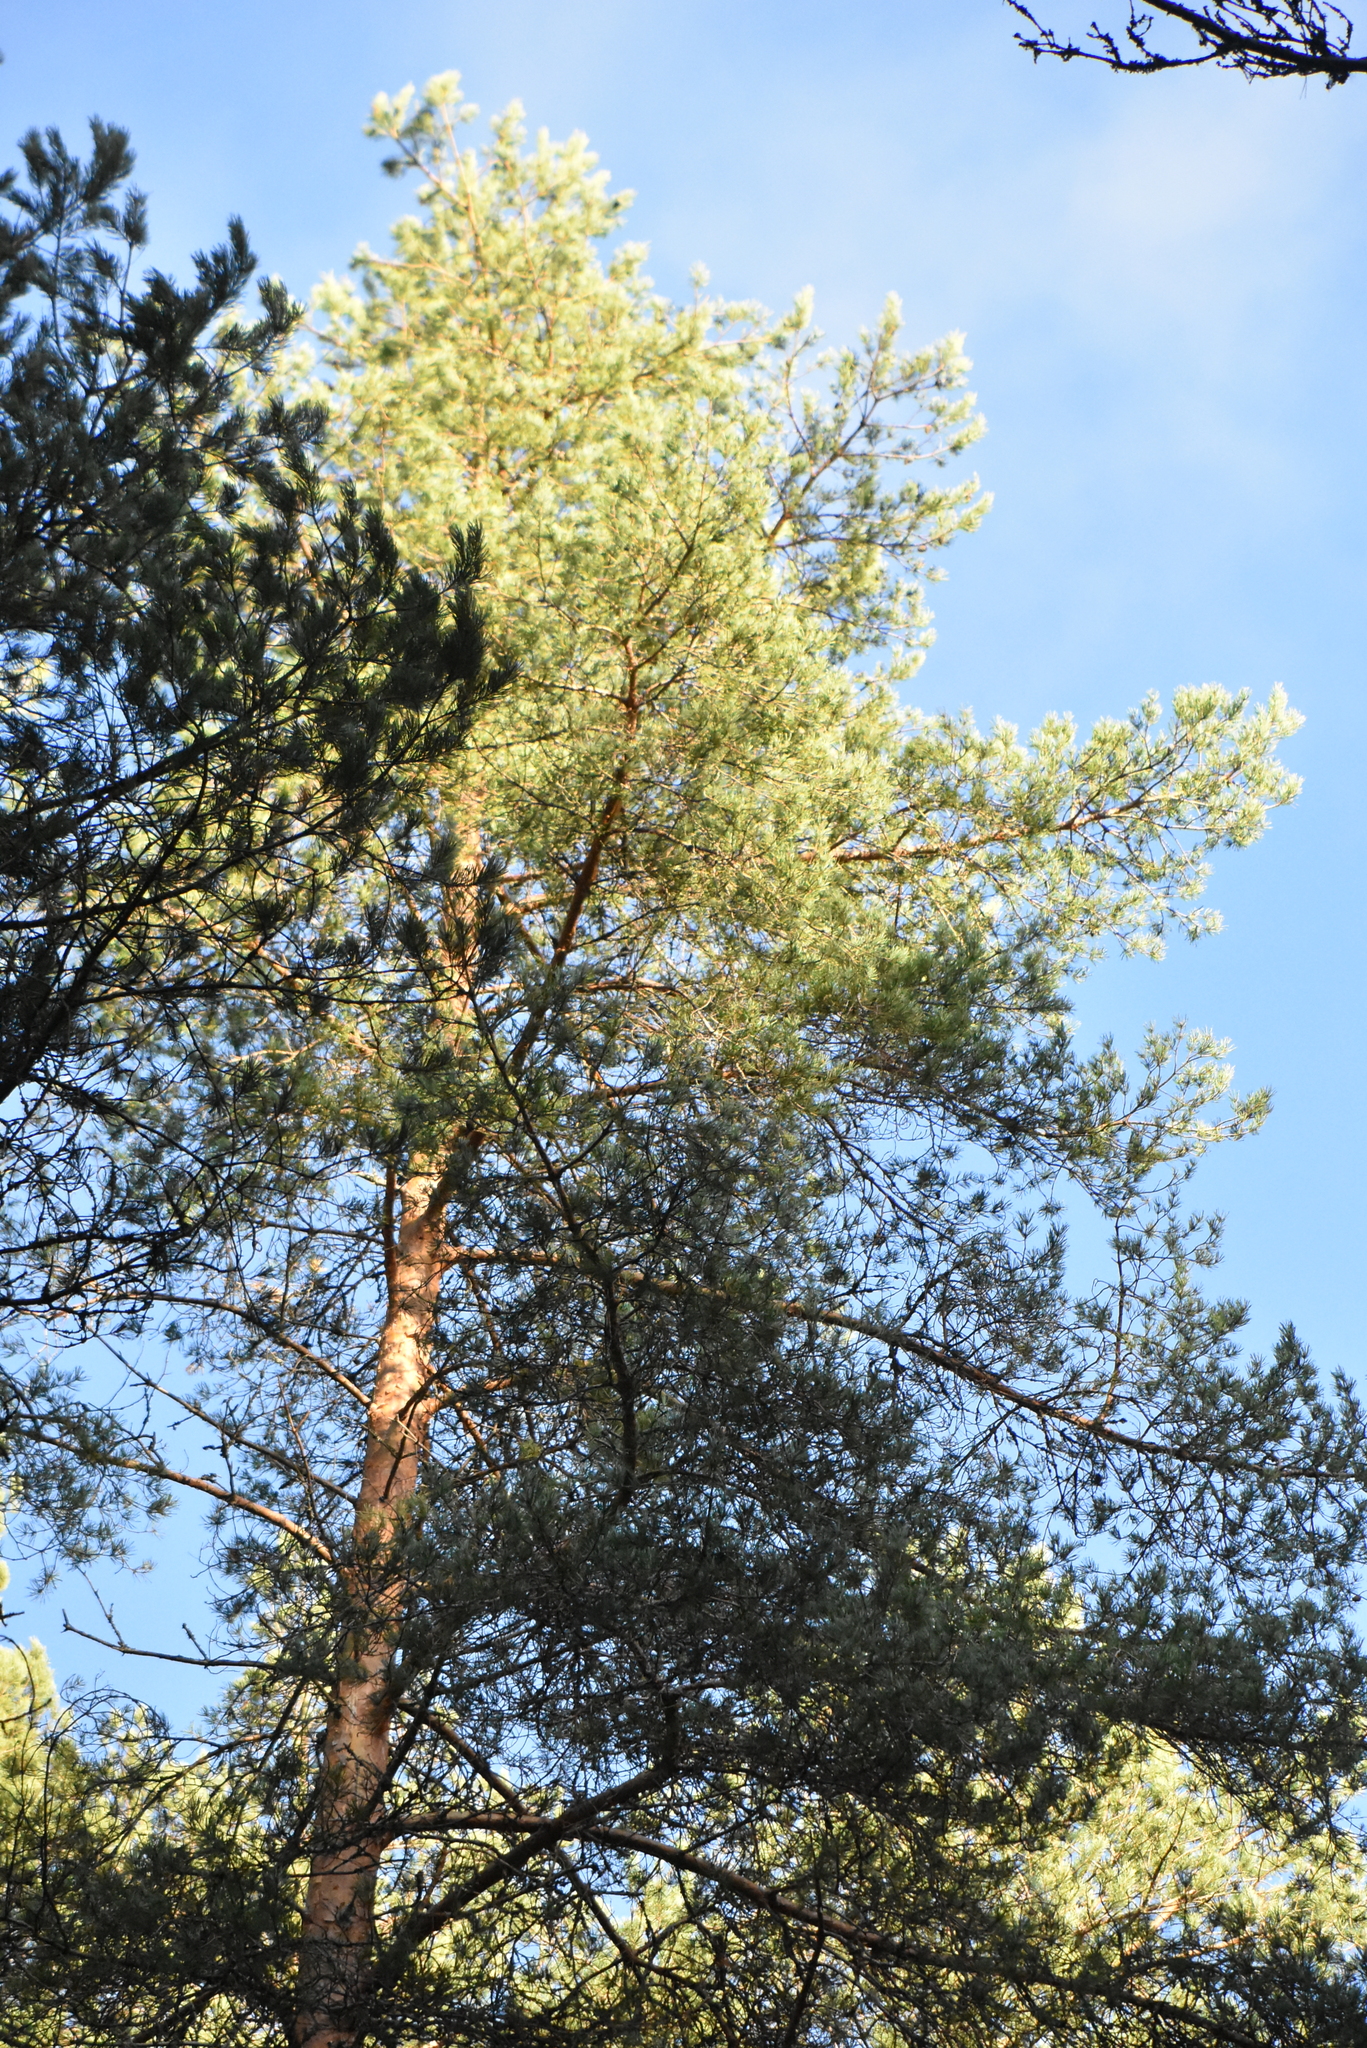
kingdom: Plantae
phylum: Tracheophyta
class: Pinopsida
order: Pinales
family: Pinaceae
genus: Pinus
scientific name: Pinus sylvestris
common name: Scots pine
